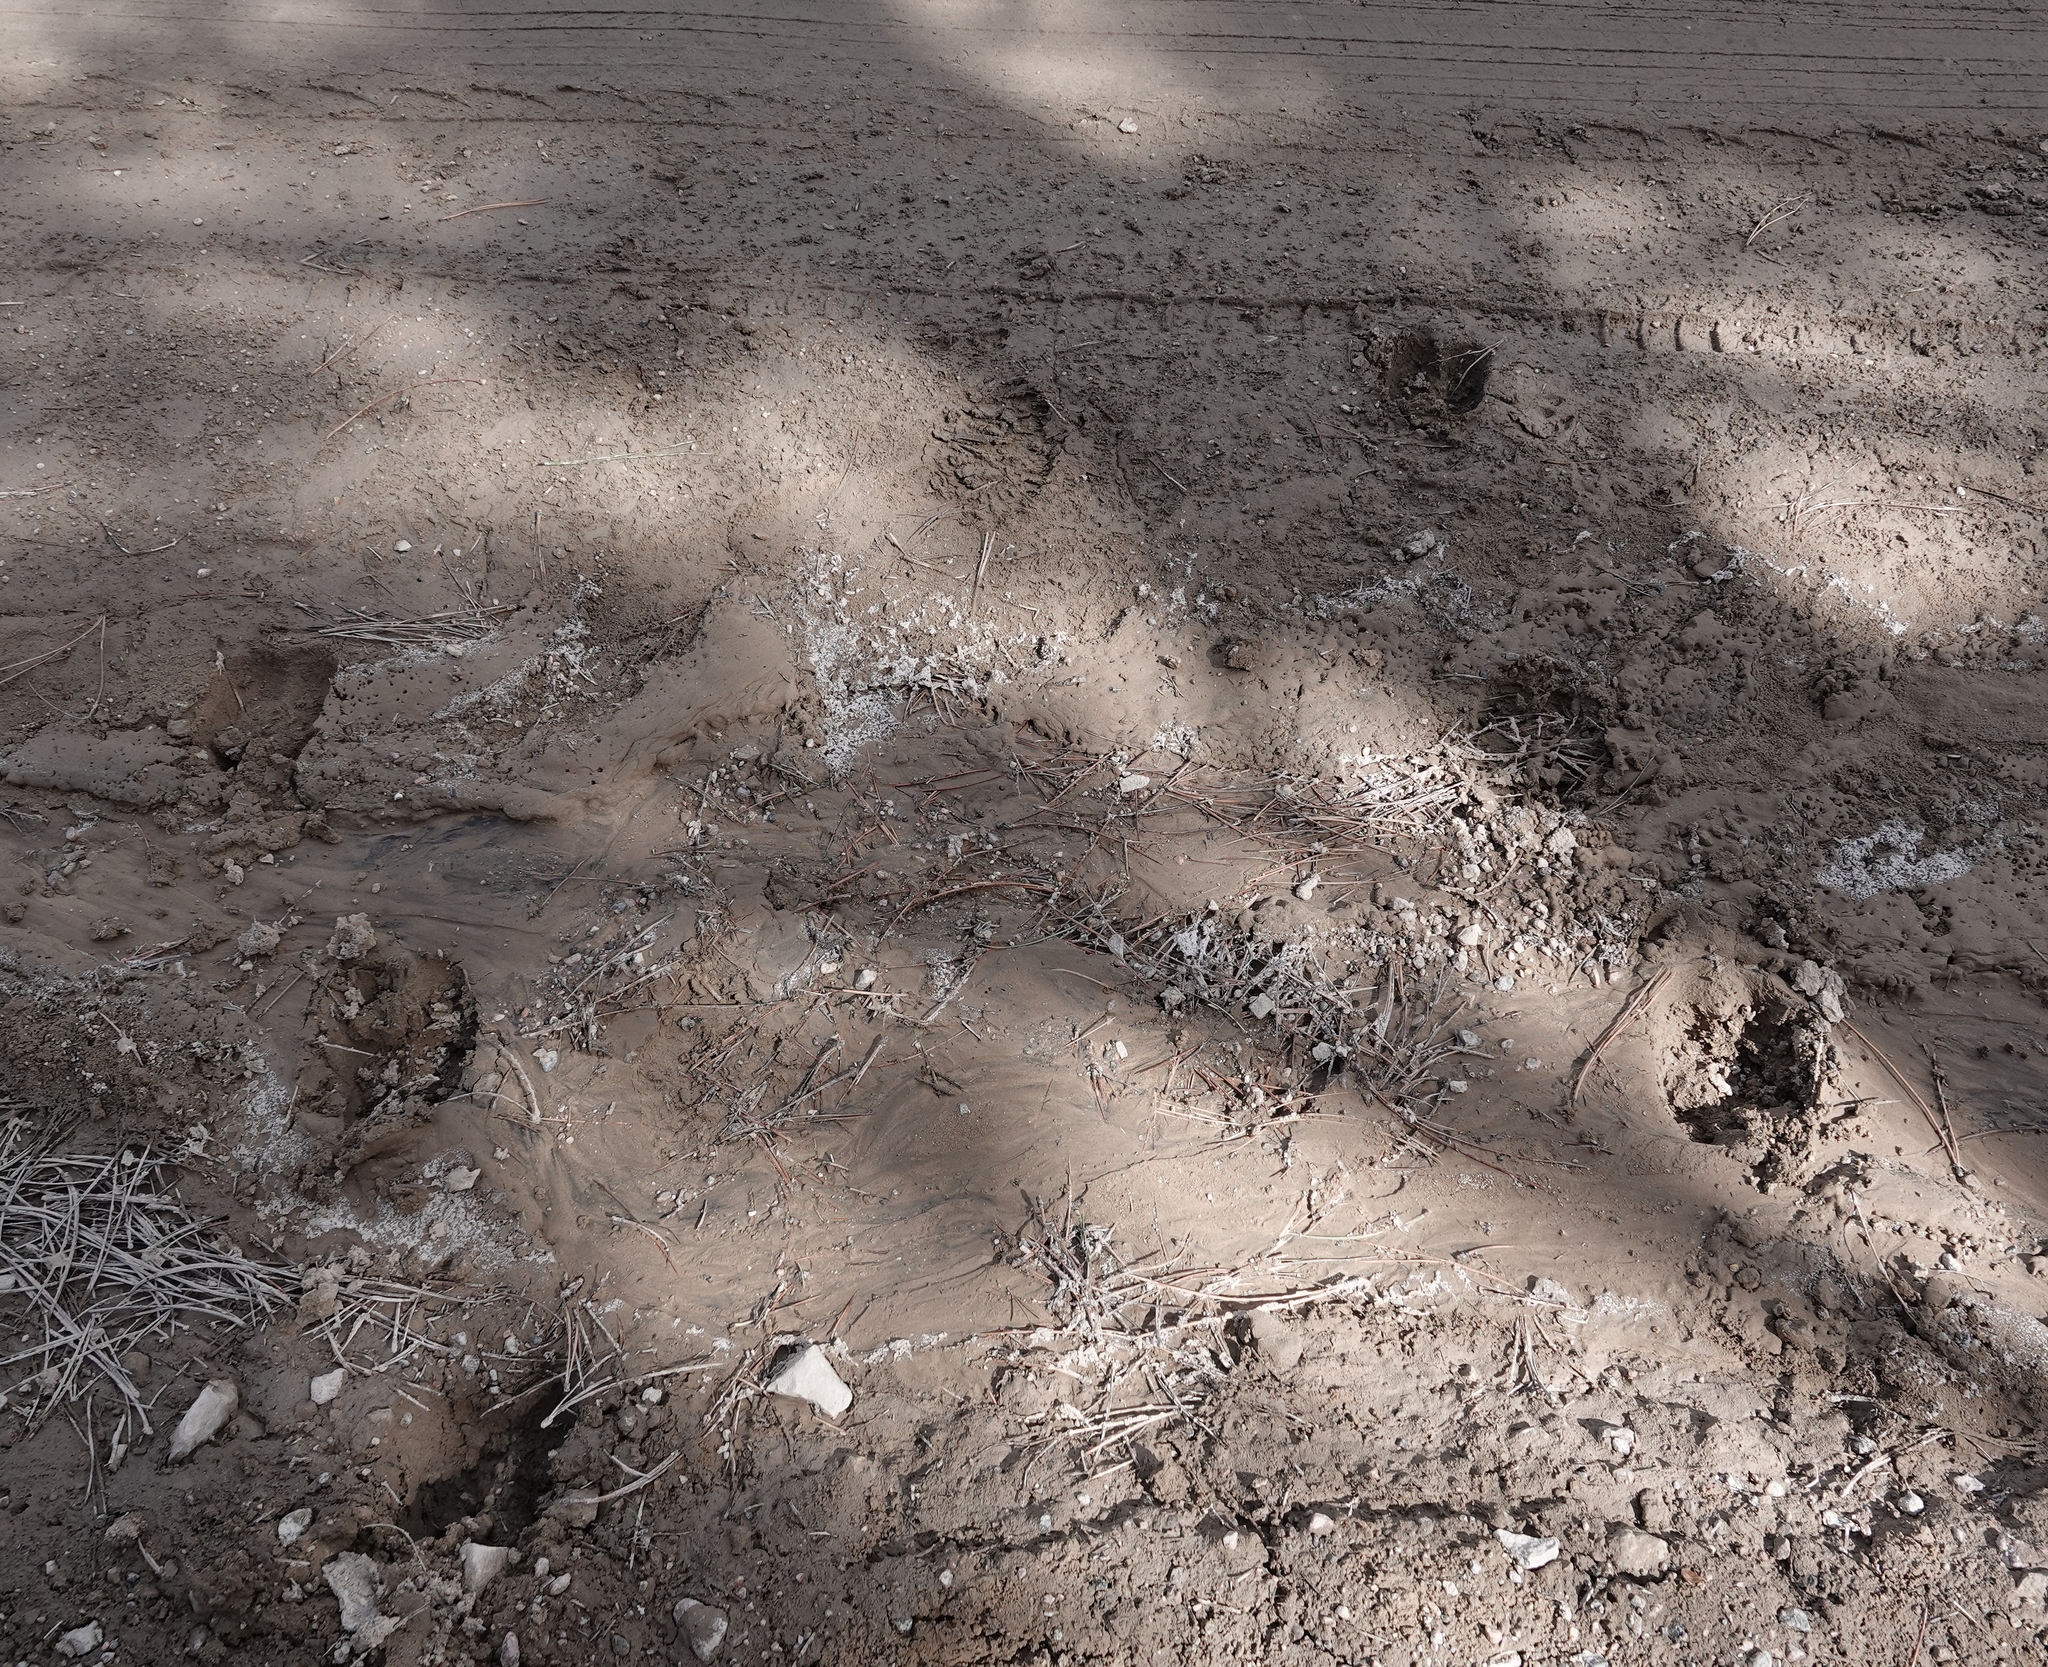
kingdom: Animalia
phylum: Chordata
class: Mammalia
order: Artiodactyla
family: Cervidae
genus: Alces
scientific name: Alces alces
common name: Moose
